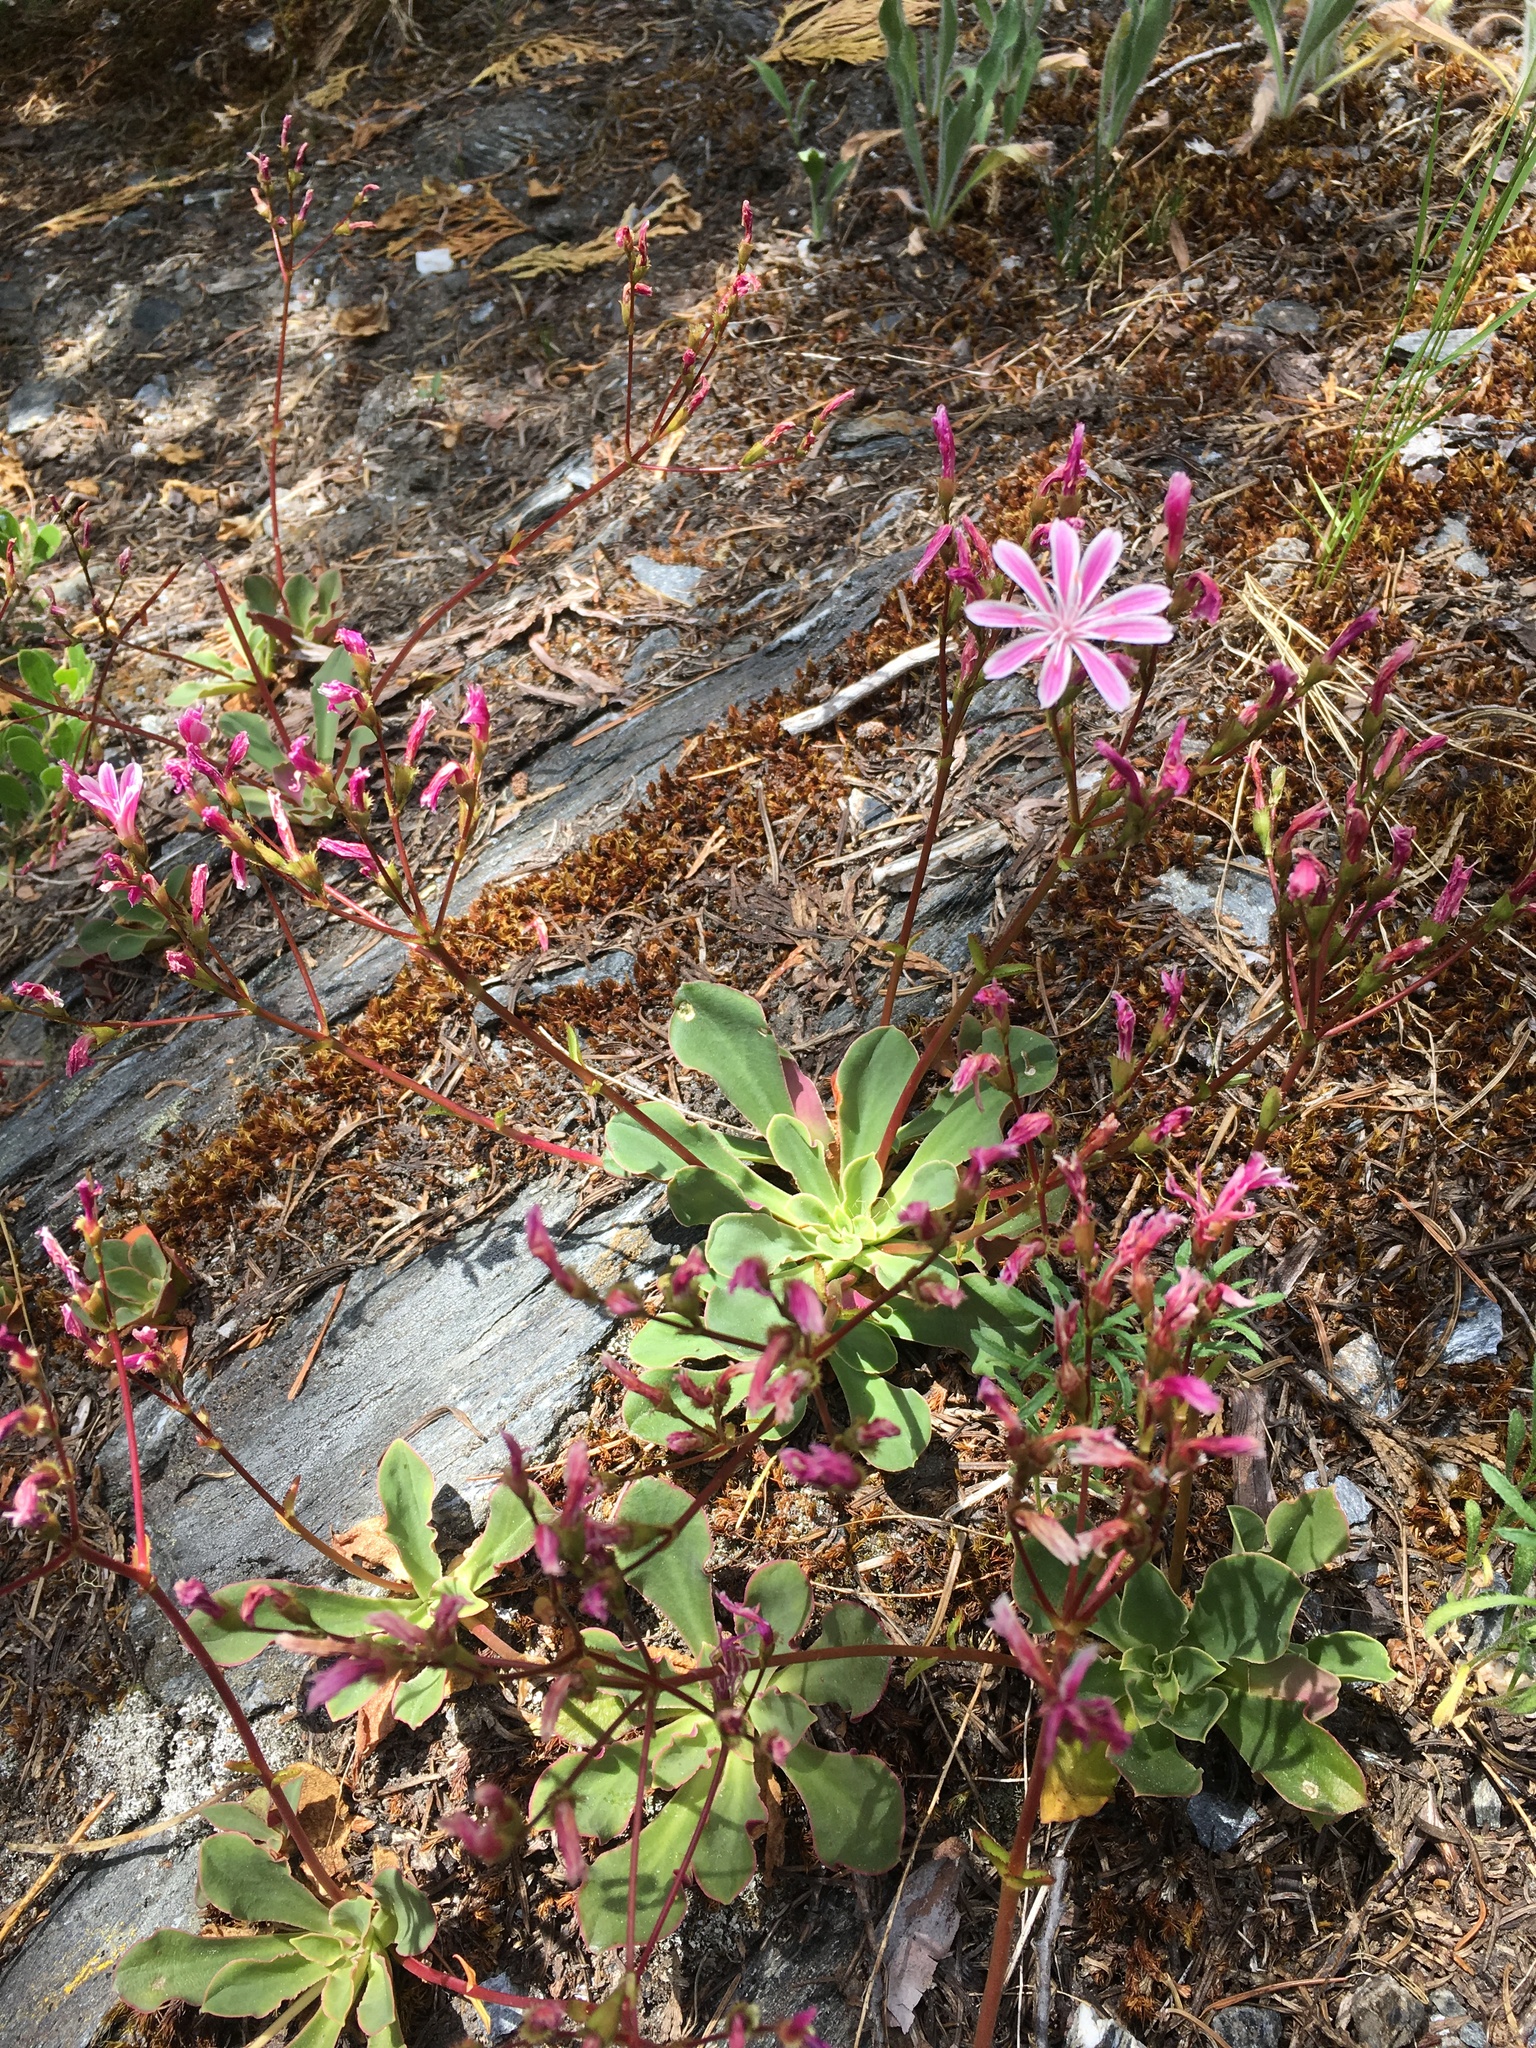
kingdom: Plantae
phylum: Tracheophyta
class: Magnoliopsida
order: Caryophyllales
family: Montiaceae
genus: Lewisia
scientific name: Lewisia cotyledon
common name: Siskiyou lewisia
